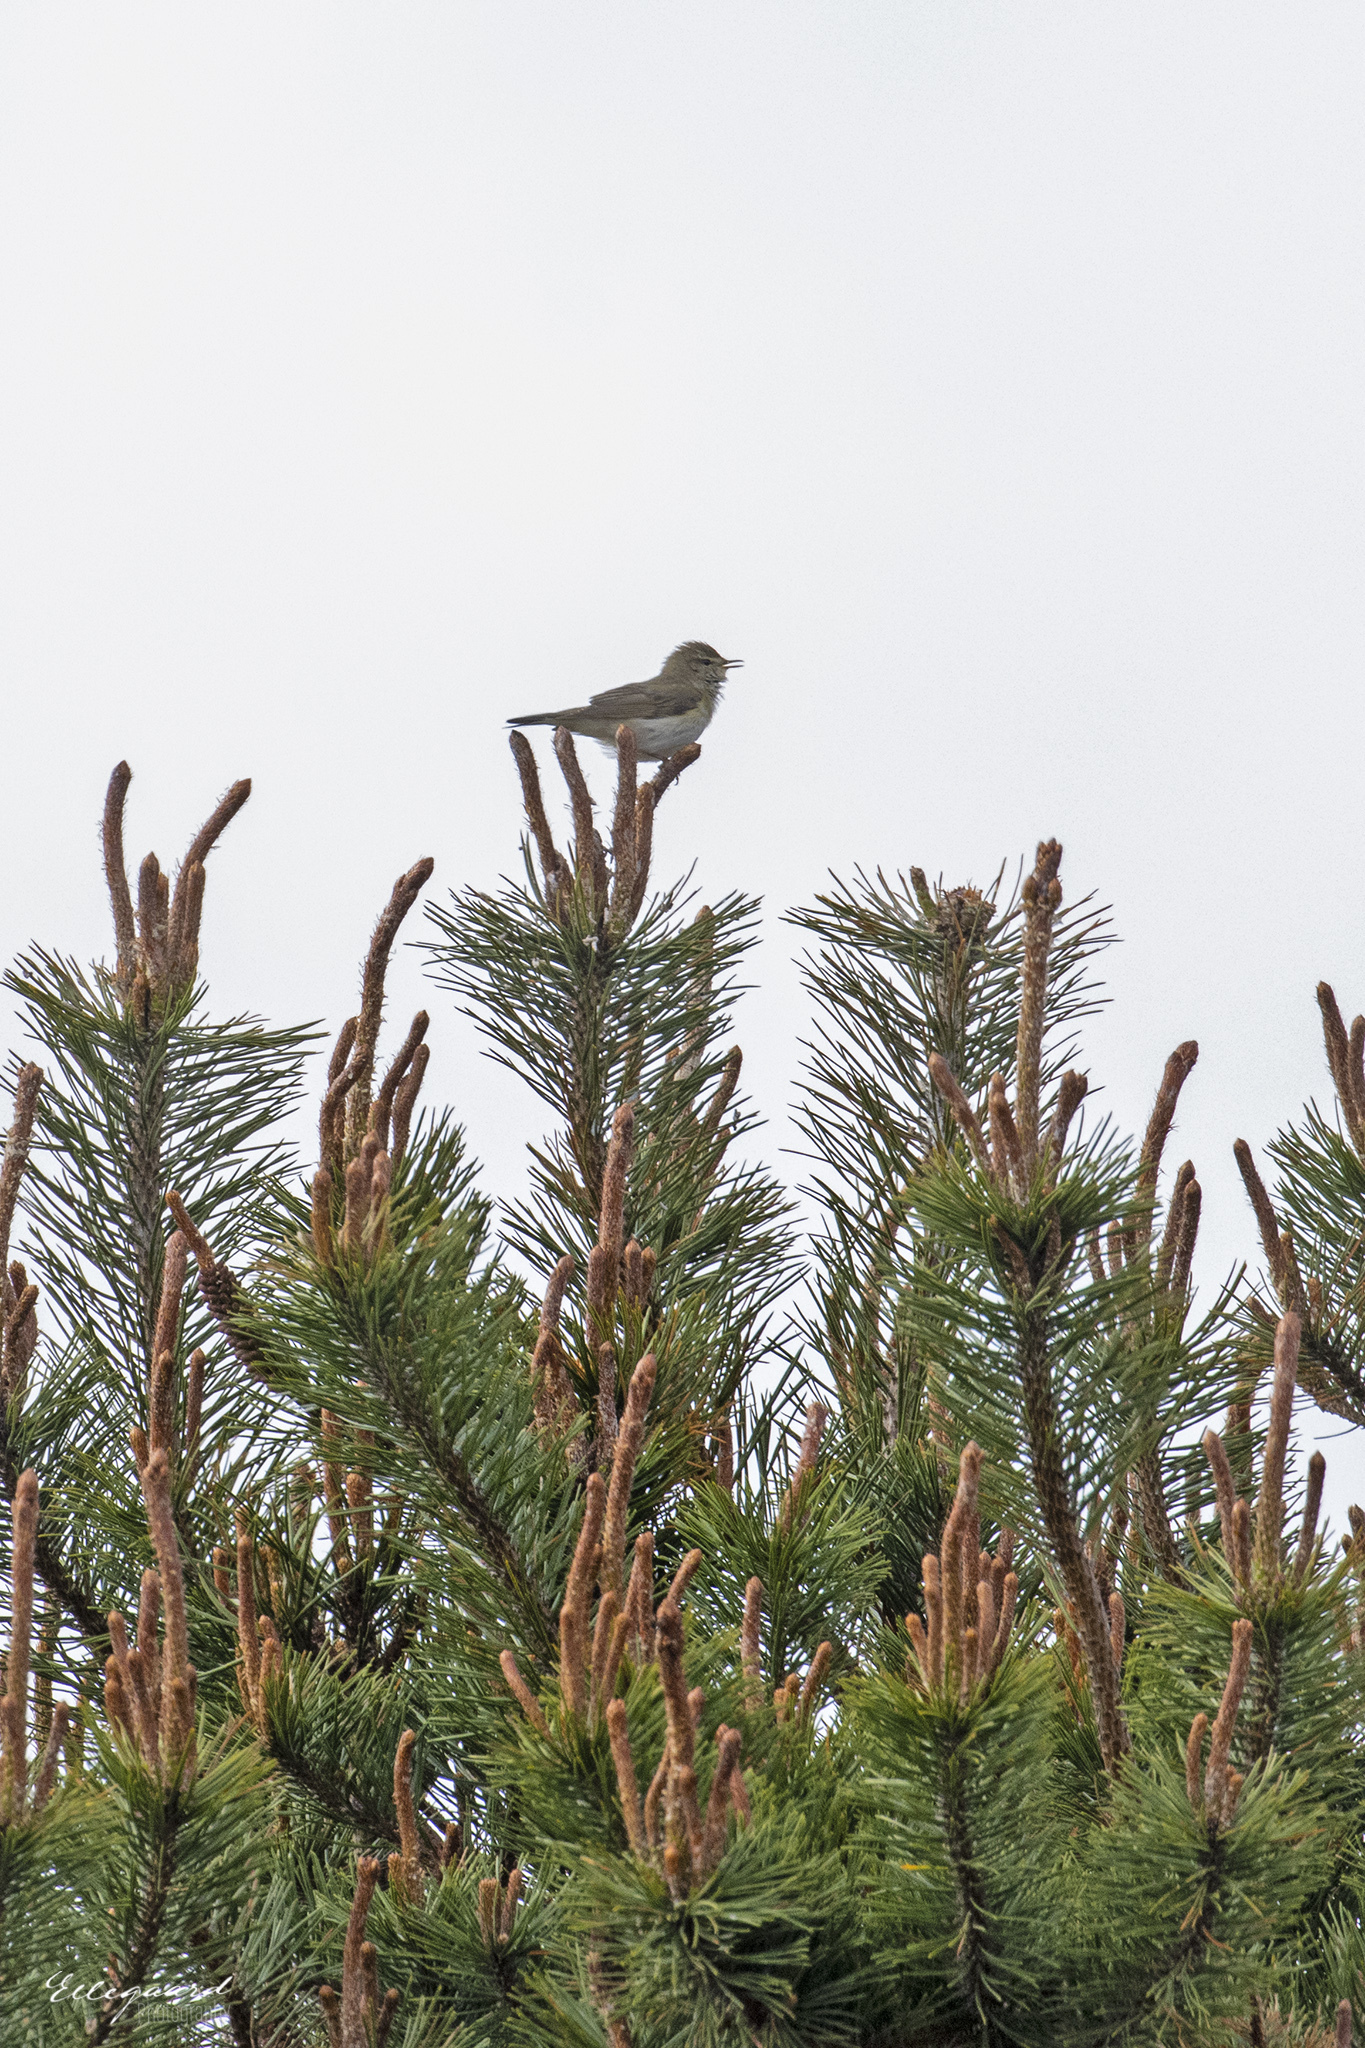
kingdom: Animalia
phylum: Chordata
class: Aves
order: Passeriformes
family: Phylloscopidae
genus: Phylloscopus
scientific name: Phylloscopus trochilus
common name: Willow warbler
